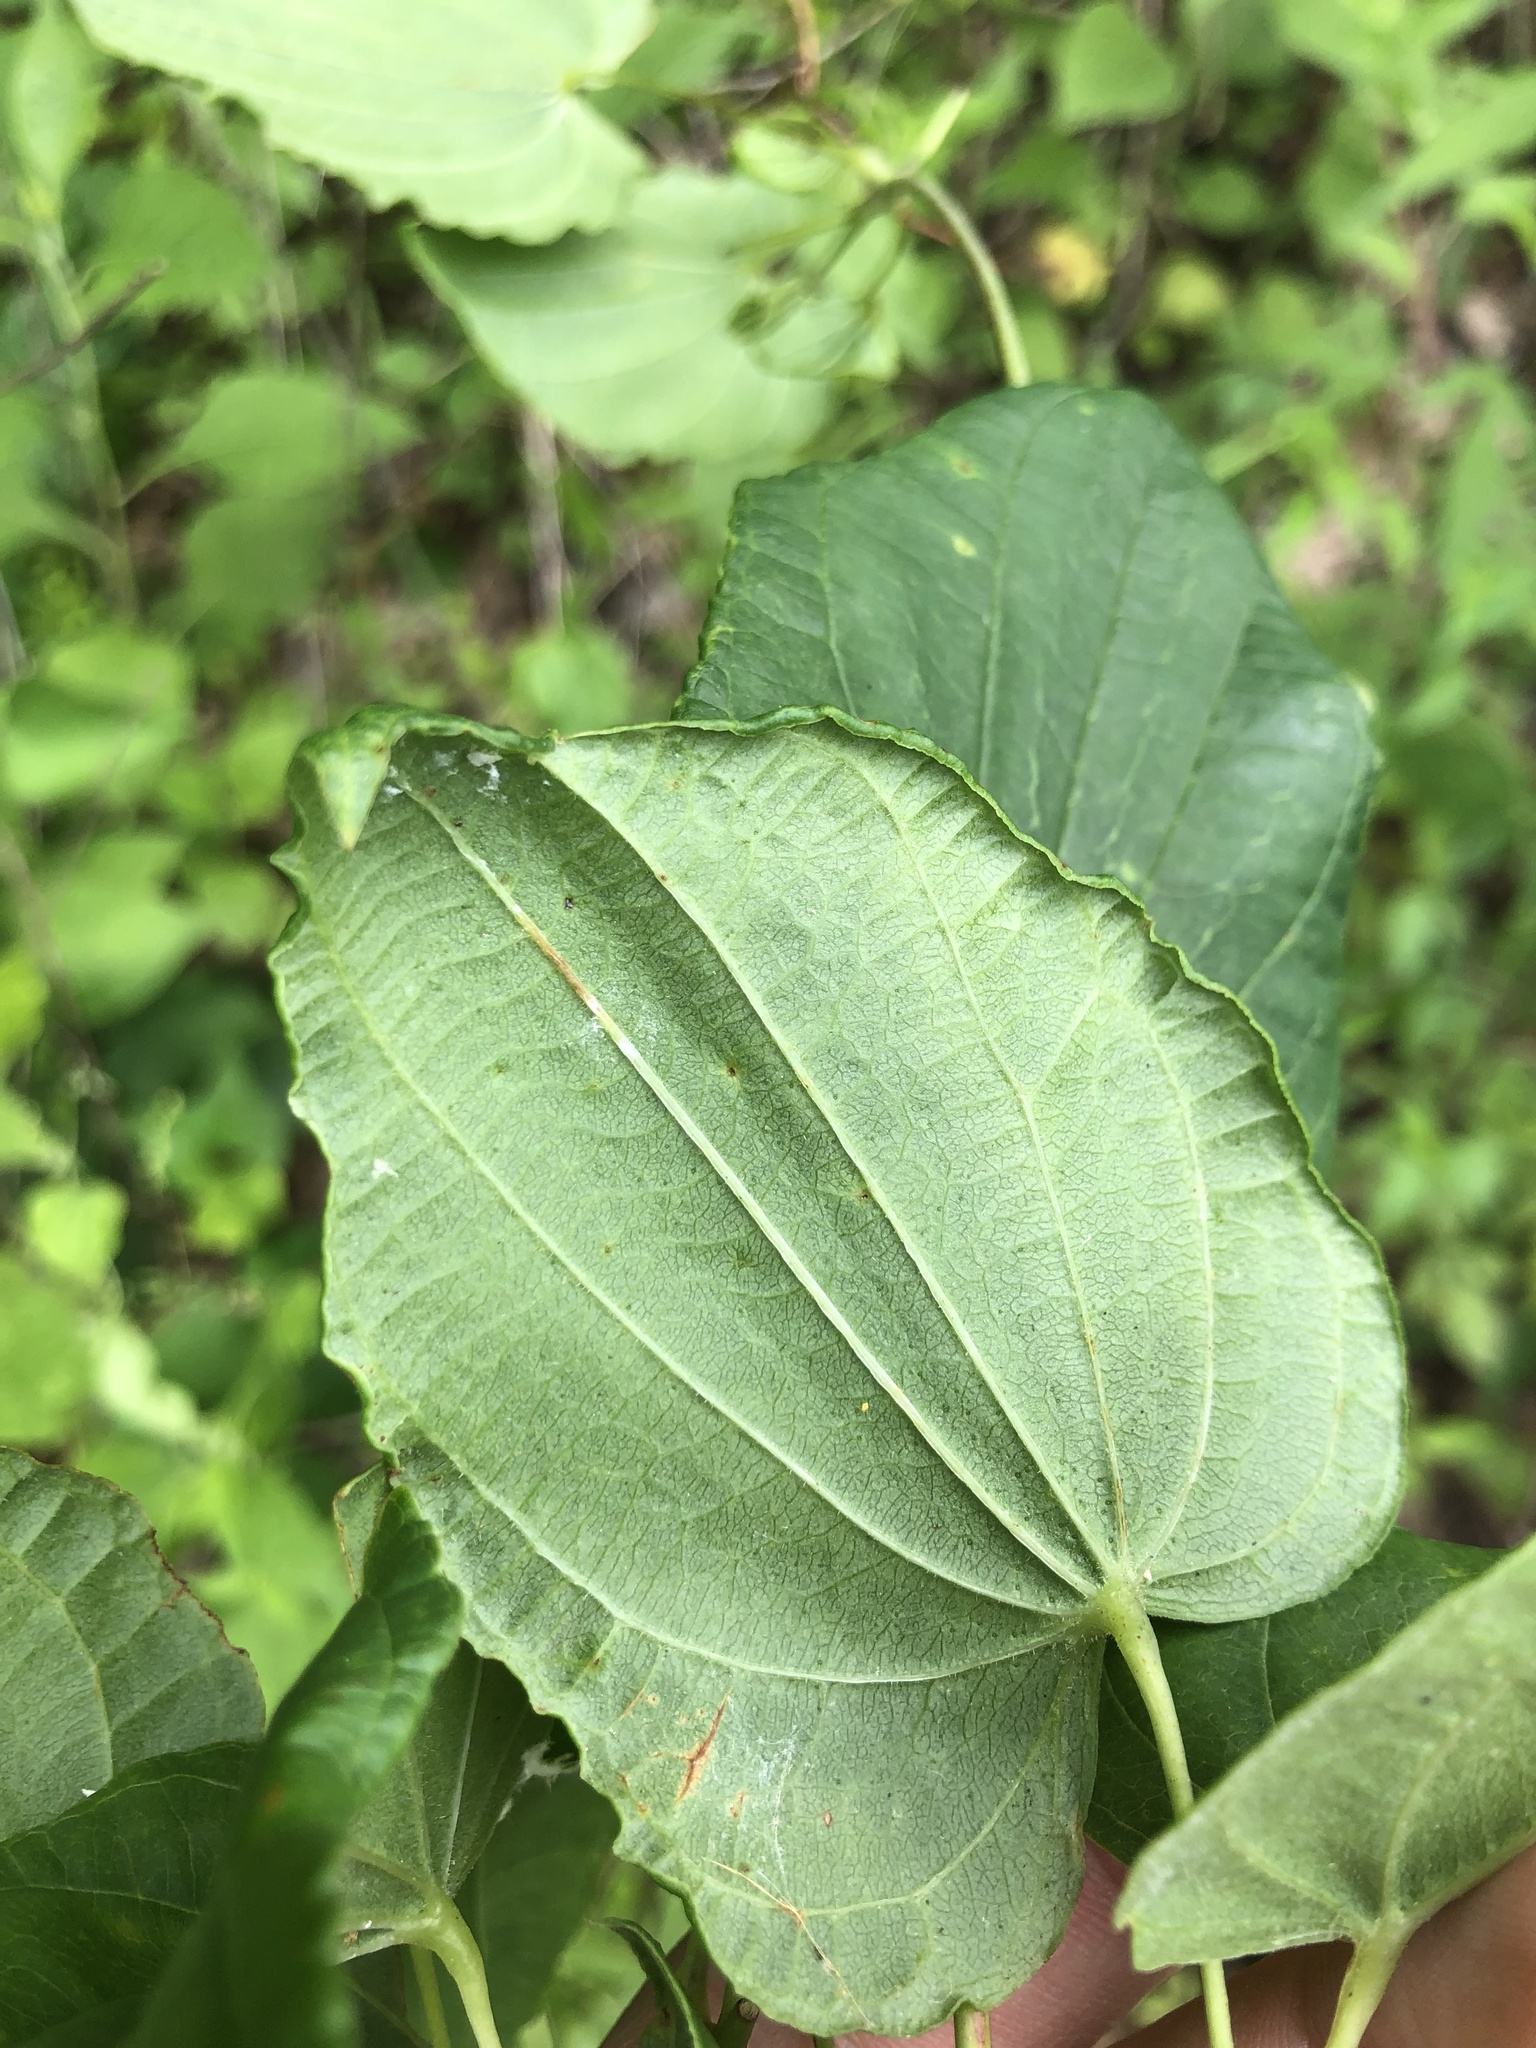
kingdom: Plantae
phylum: Tracheophyta
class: Liliopsida
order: Liliales
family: Smilacaceae
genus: Smilax
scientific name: Smilax lasioneura
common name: Blue ridge carrionflower
